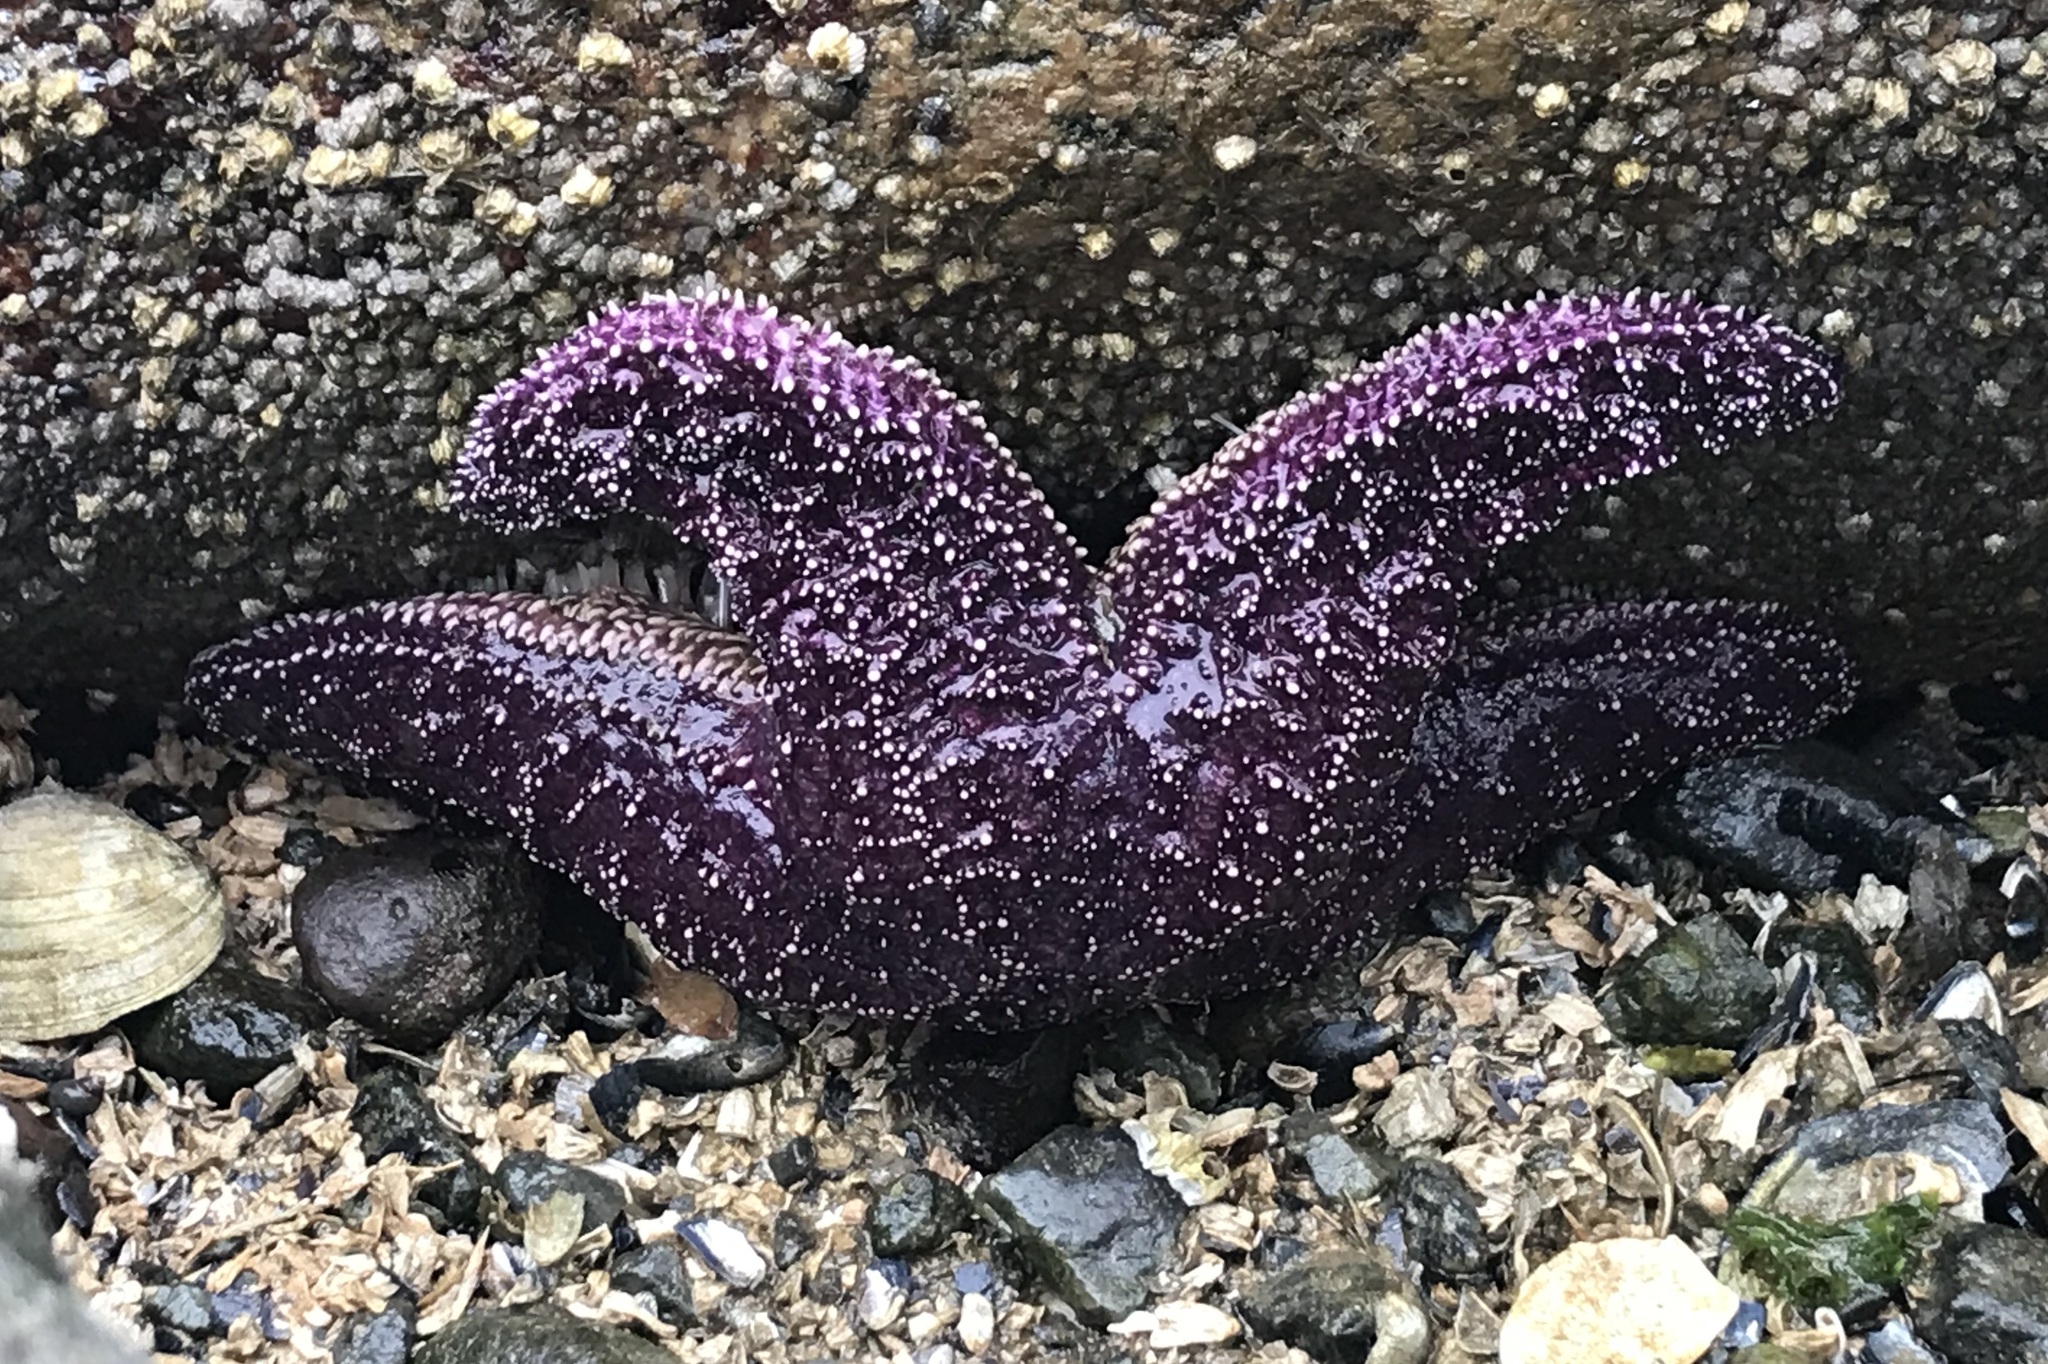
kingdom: Animalia
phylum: Echinodermata
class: Asteroidea
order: Forcipulatida
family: Asteriidae
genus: Pisaster
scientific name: Pisaster ochraceus
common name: Ochre stars
